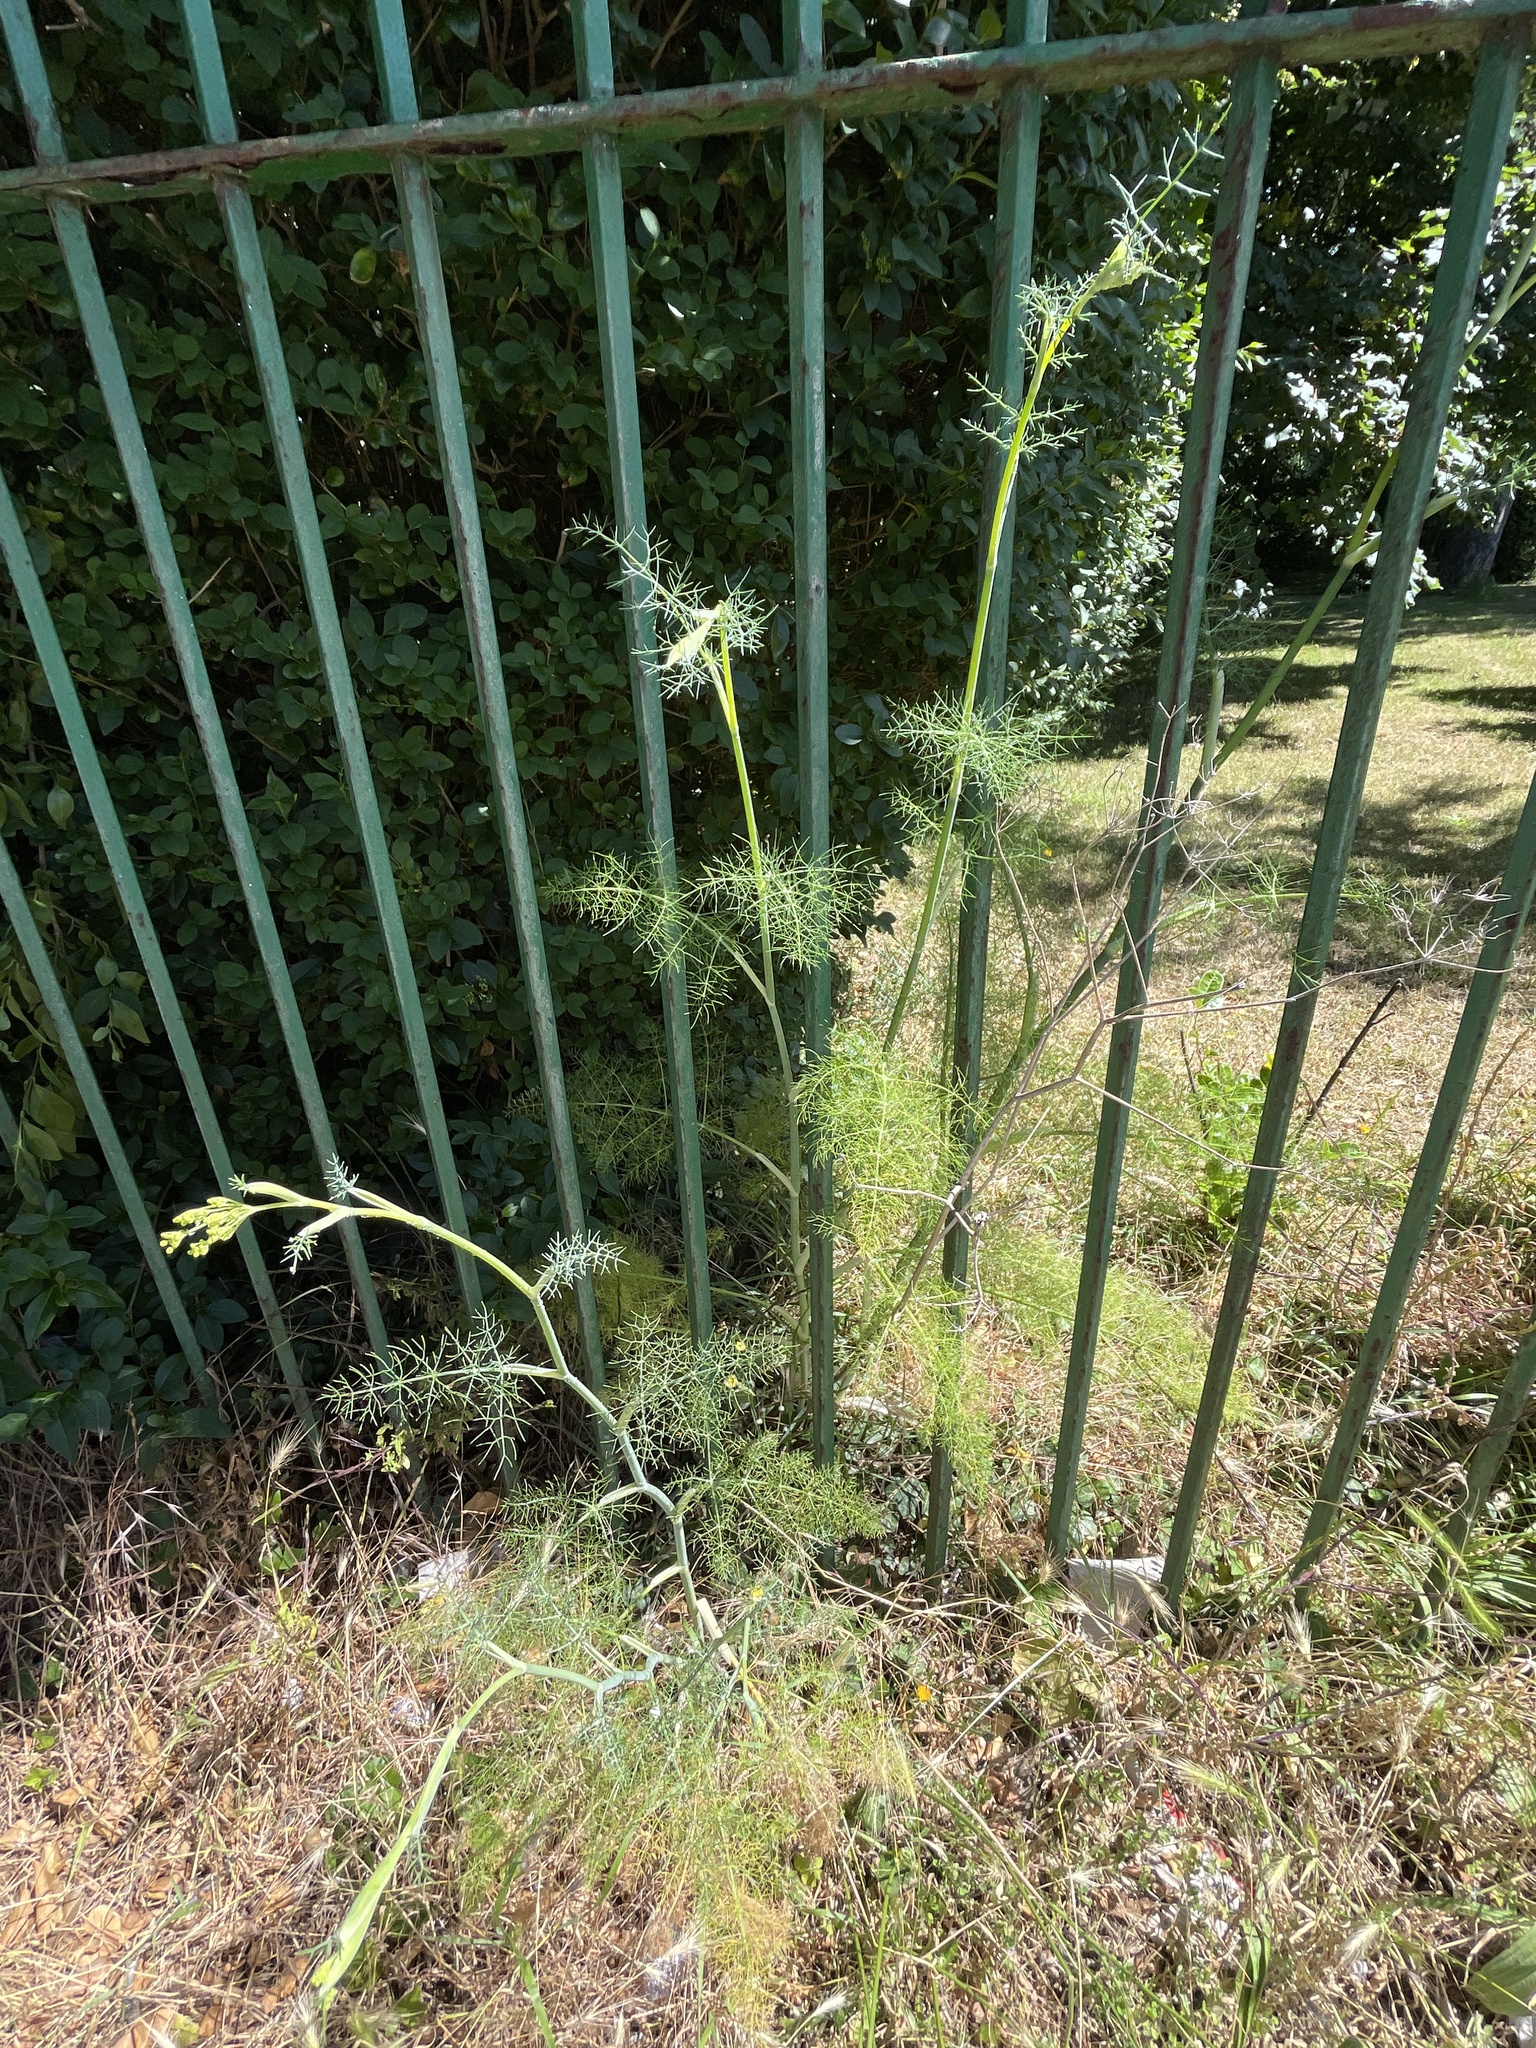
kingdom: Plantae
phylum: Tracheophyta
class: Magnoliopsida
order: Apiales
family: Apiaceae
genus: Foeniculum
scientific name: Foeniculum vulgare
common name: Fennel
